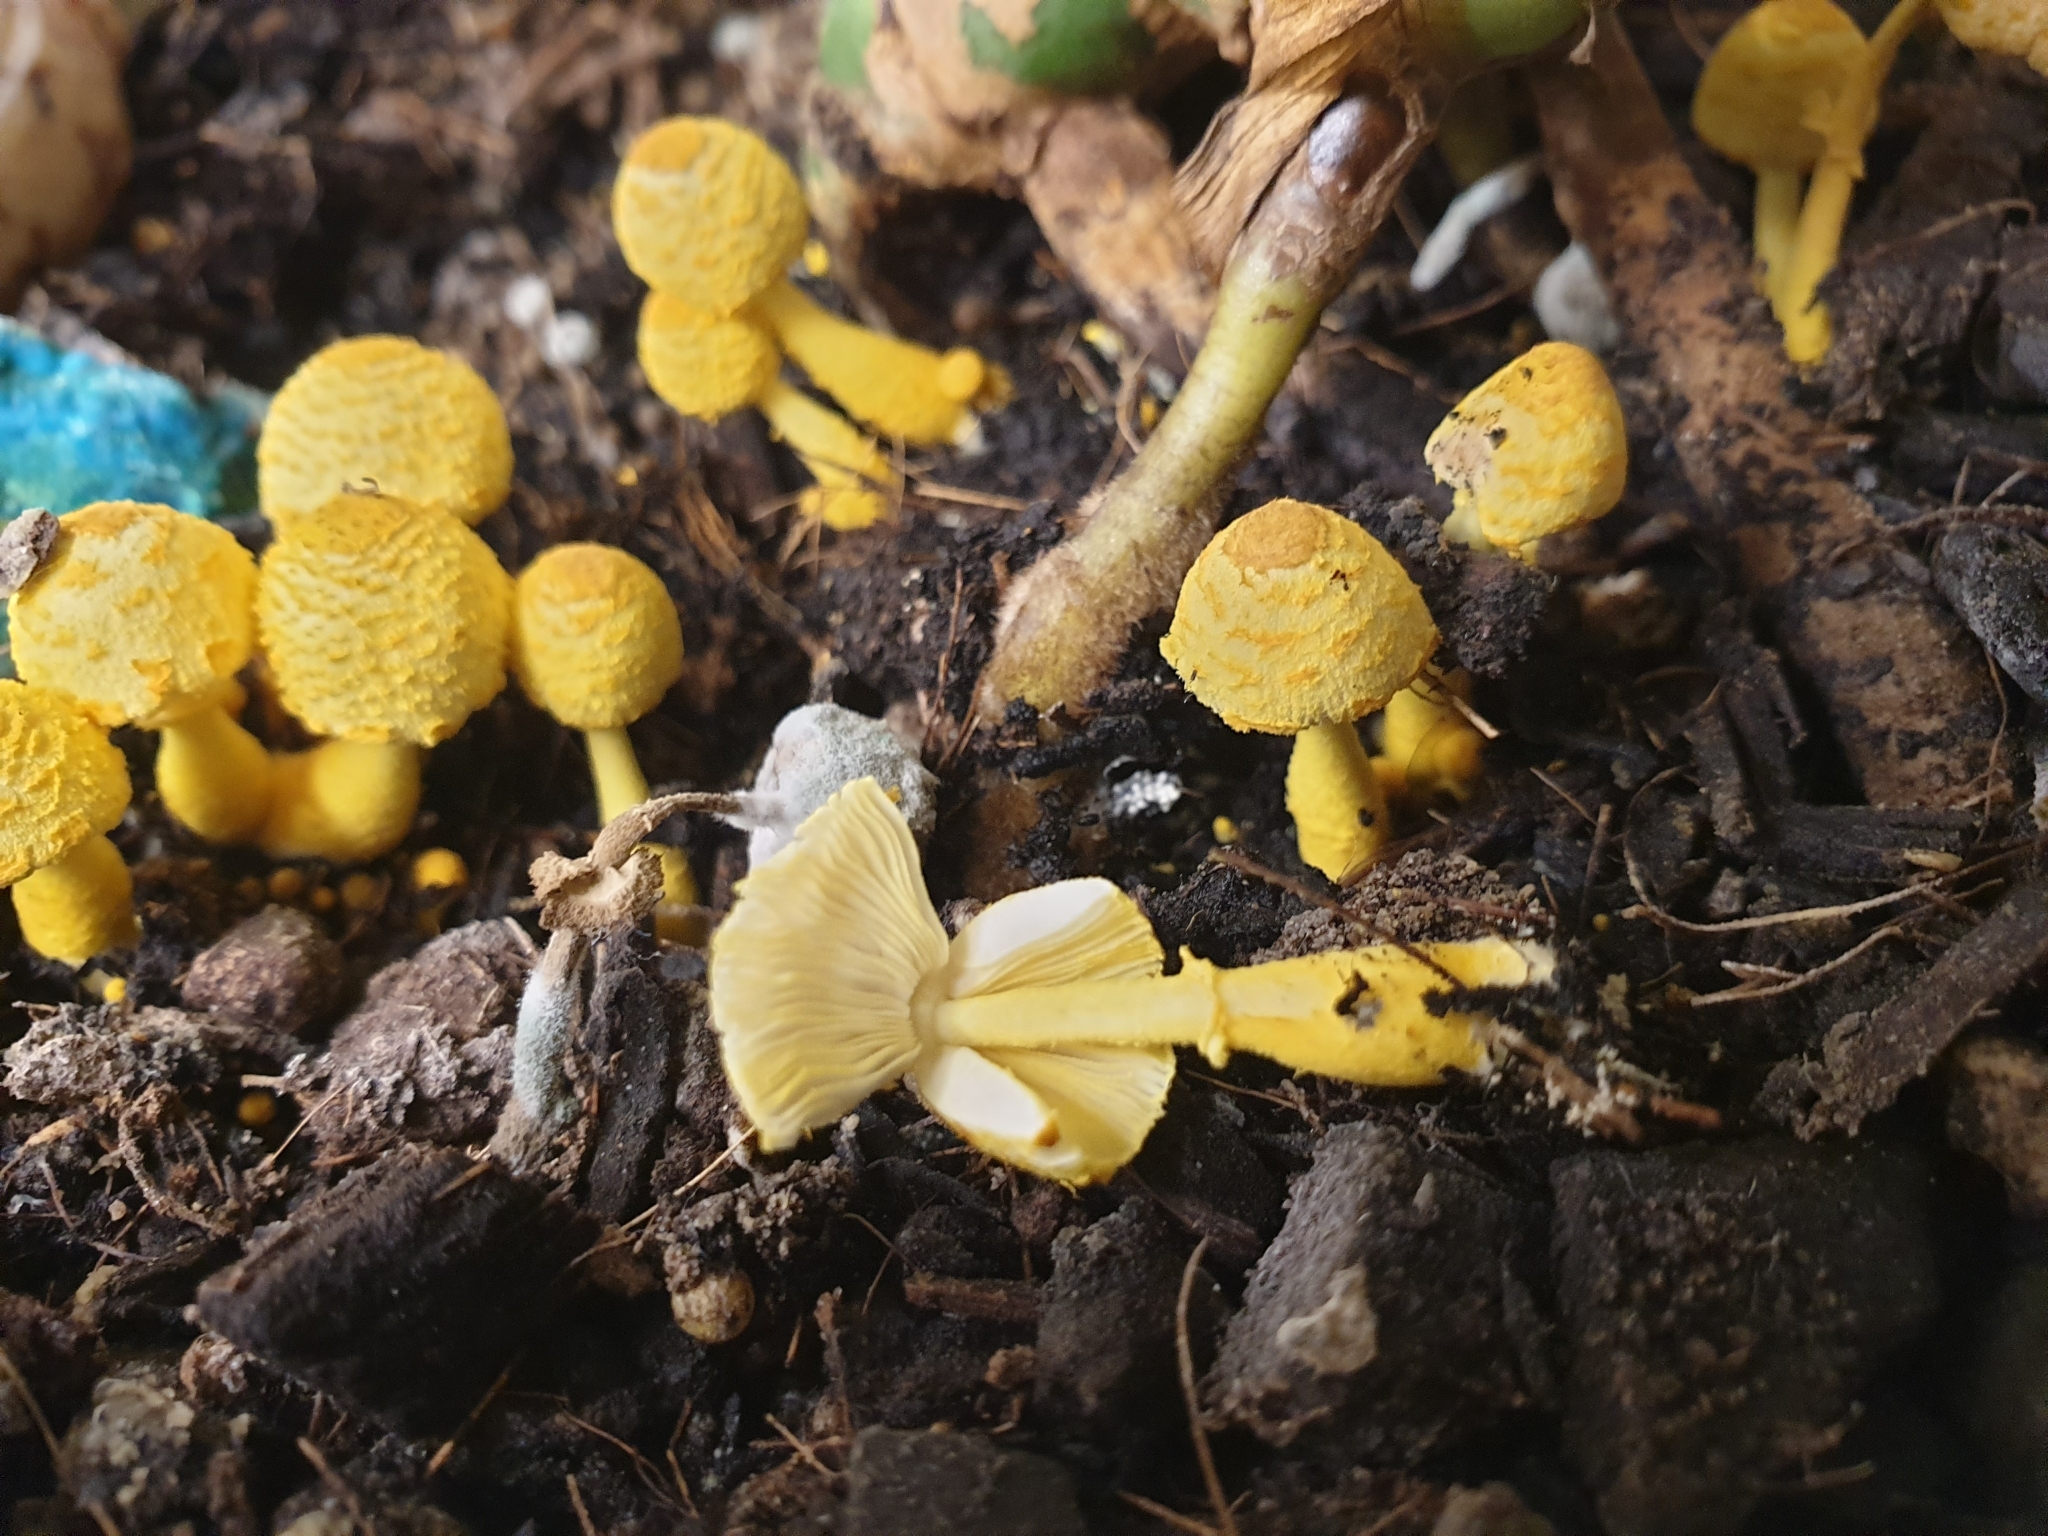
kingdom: Fungi
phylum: Basidiomycota
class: Agaricomycetes
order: Agaricales
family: Agaricaceae
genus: Leucocoprinus
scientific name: Leucocoprinus birnbaumii
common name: Plantpot dapperling
